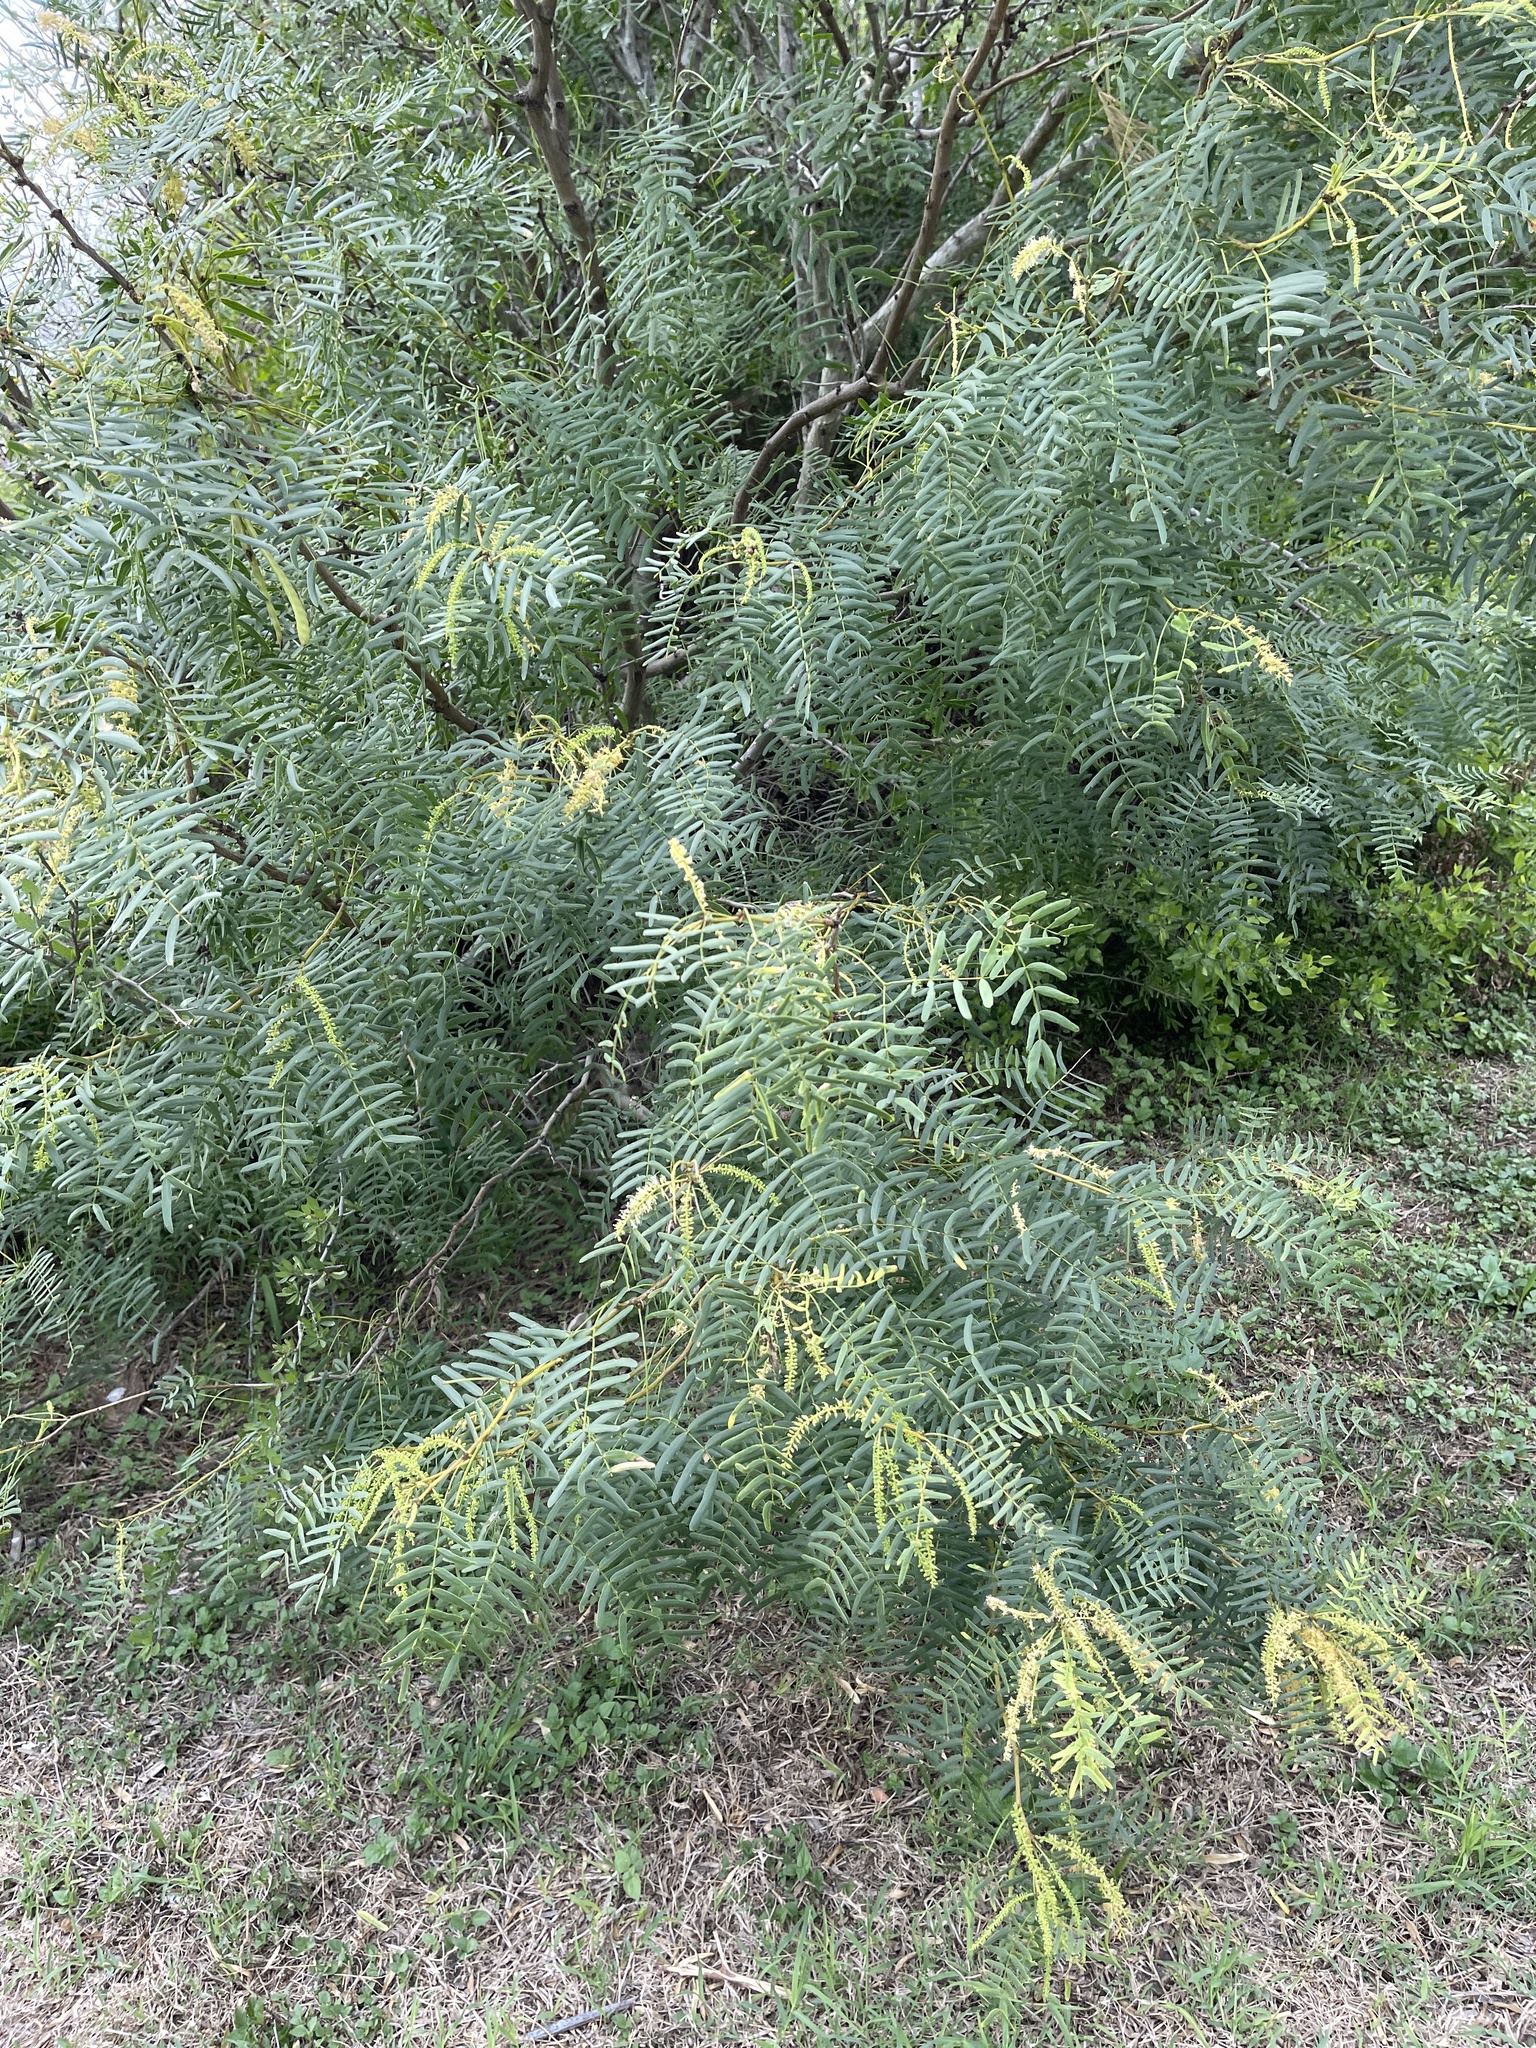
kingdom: Plantae
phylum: Tracheophyta
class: Magnoliopsida
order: Fabales
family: Fabaceae
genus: Prosopis
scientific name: Prosopis glandulosa
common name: Honey mesquite
